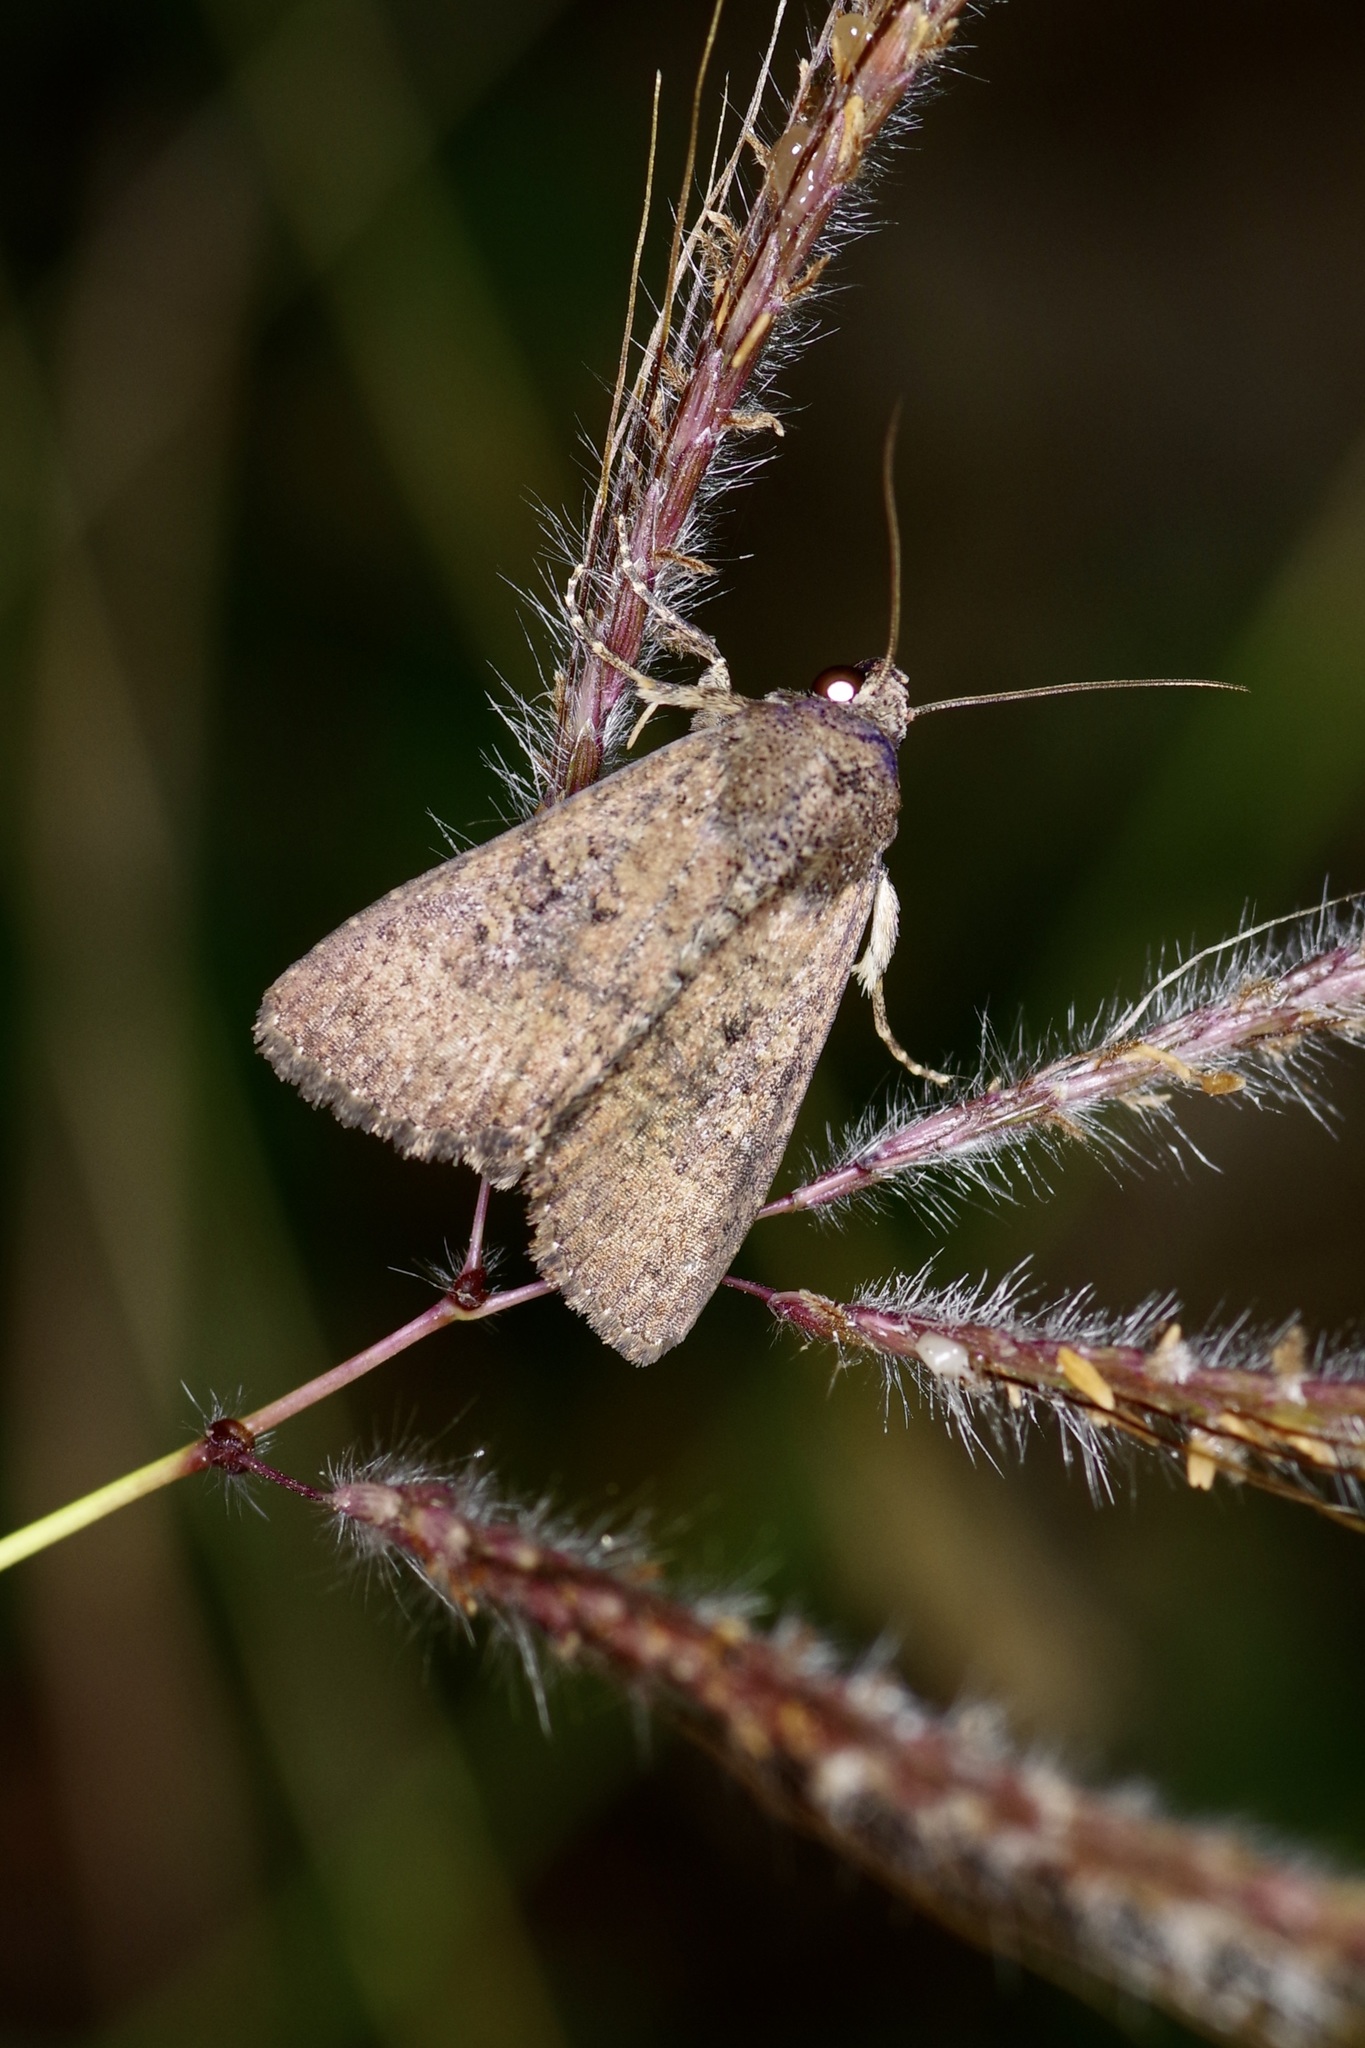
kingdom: Animalia
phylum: Arthropoda
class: Insecta
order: Lepidoptera
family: Noctuidae
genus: Condica
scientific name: Condica sutor
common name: Cobbler moth
